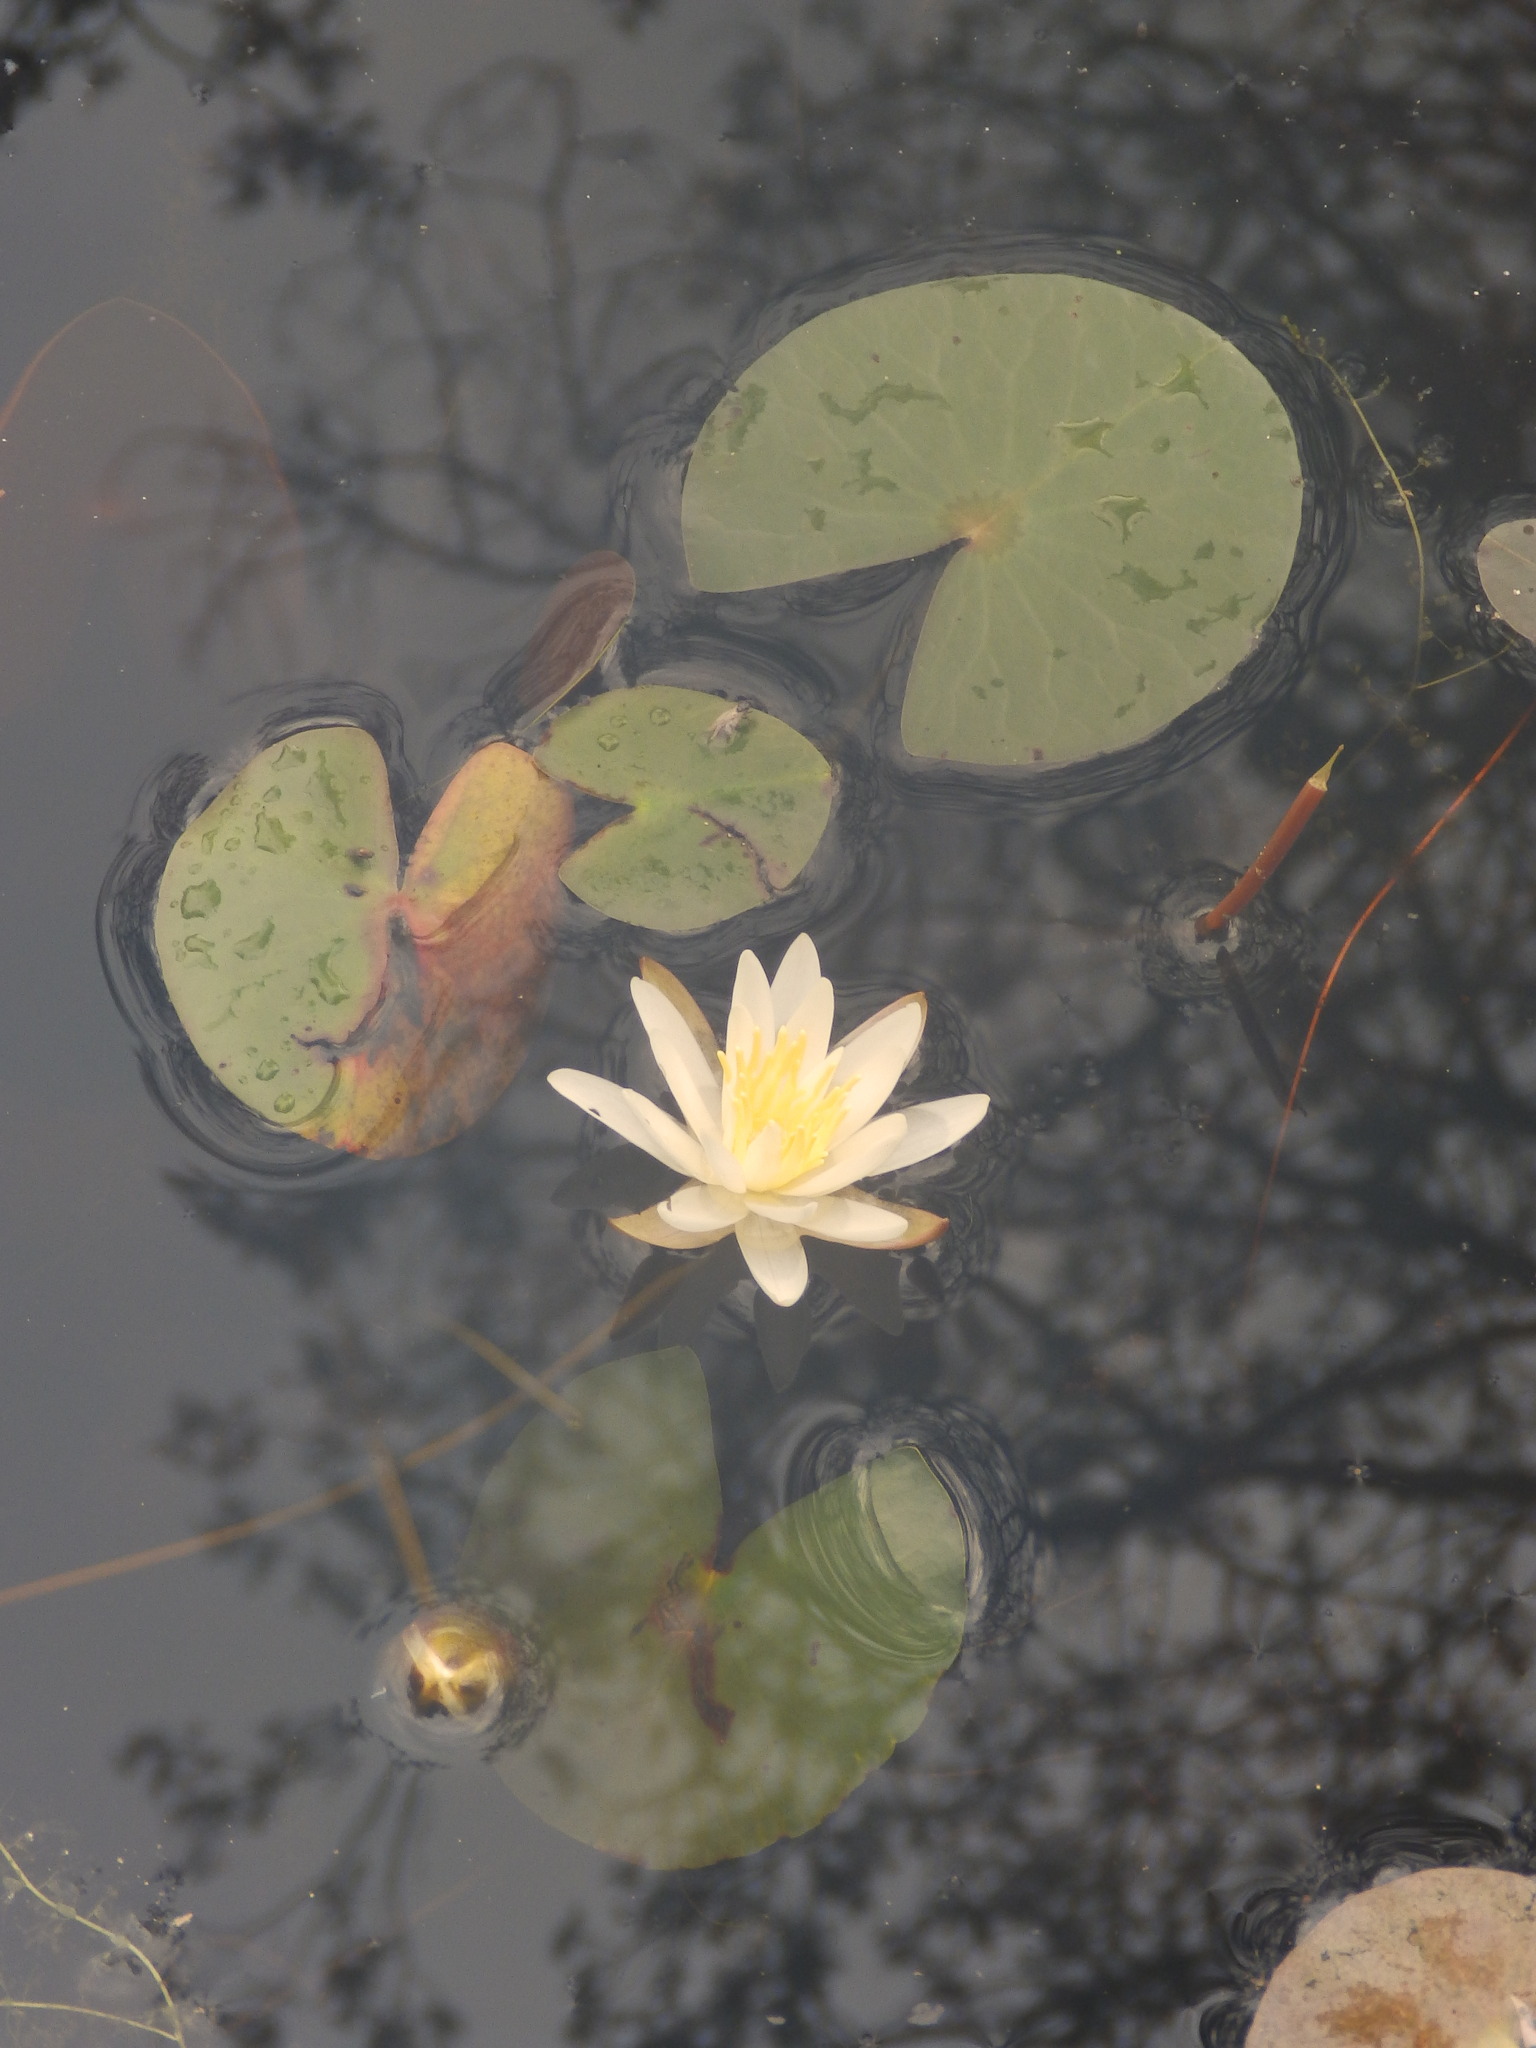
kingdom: Plantae
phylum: Tracheophyta
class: Magnoliopsida
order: Nymphaeales
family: Nymphaeaceae
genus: Nymphaea
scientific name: Nymphaea odorata
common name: Fragrant water-lily
